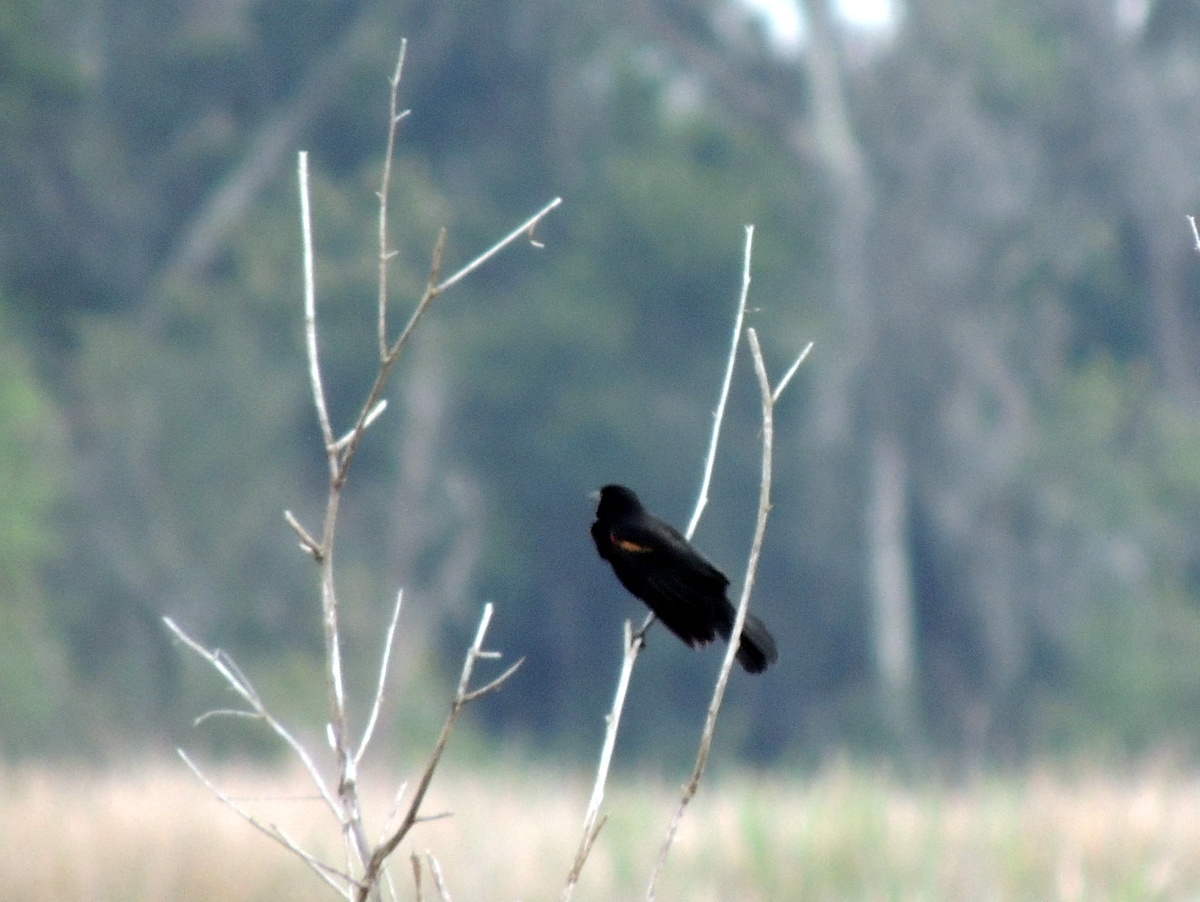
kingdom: Animalia
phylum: Chordata
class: Aves
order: Passeriformes
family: Icteridae
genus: Agelaius
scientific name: Agelaius phoeniceus
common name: Red-winged blackbird
